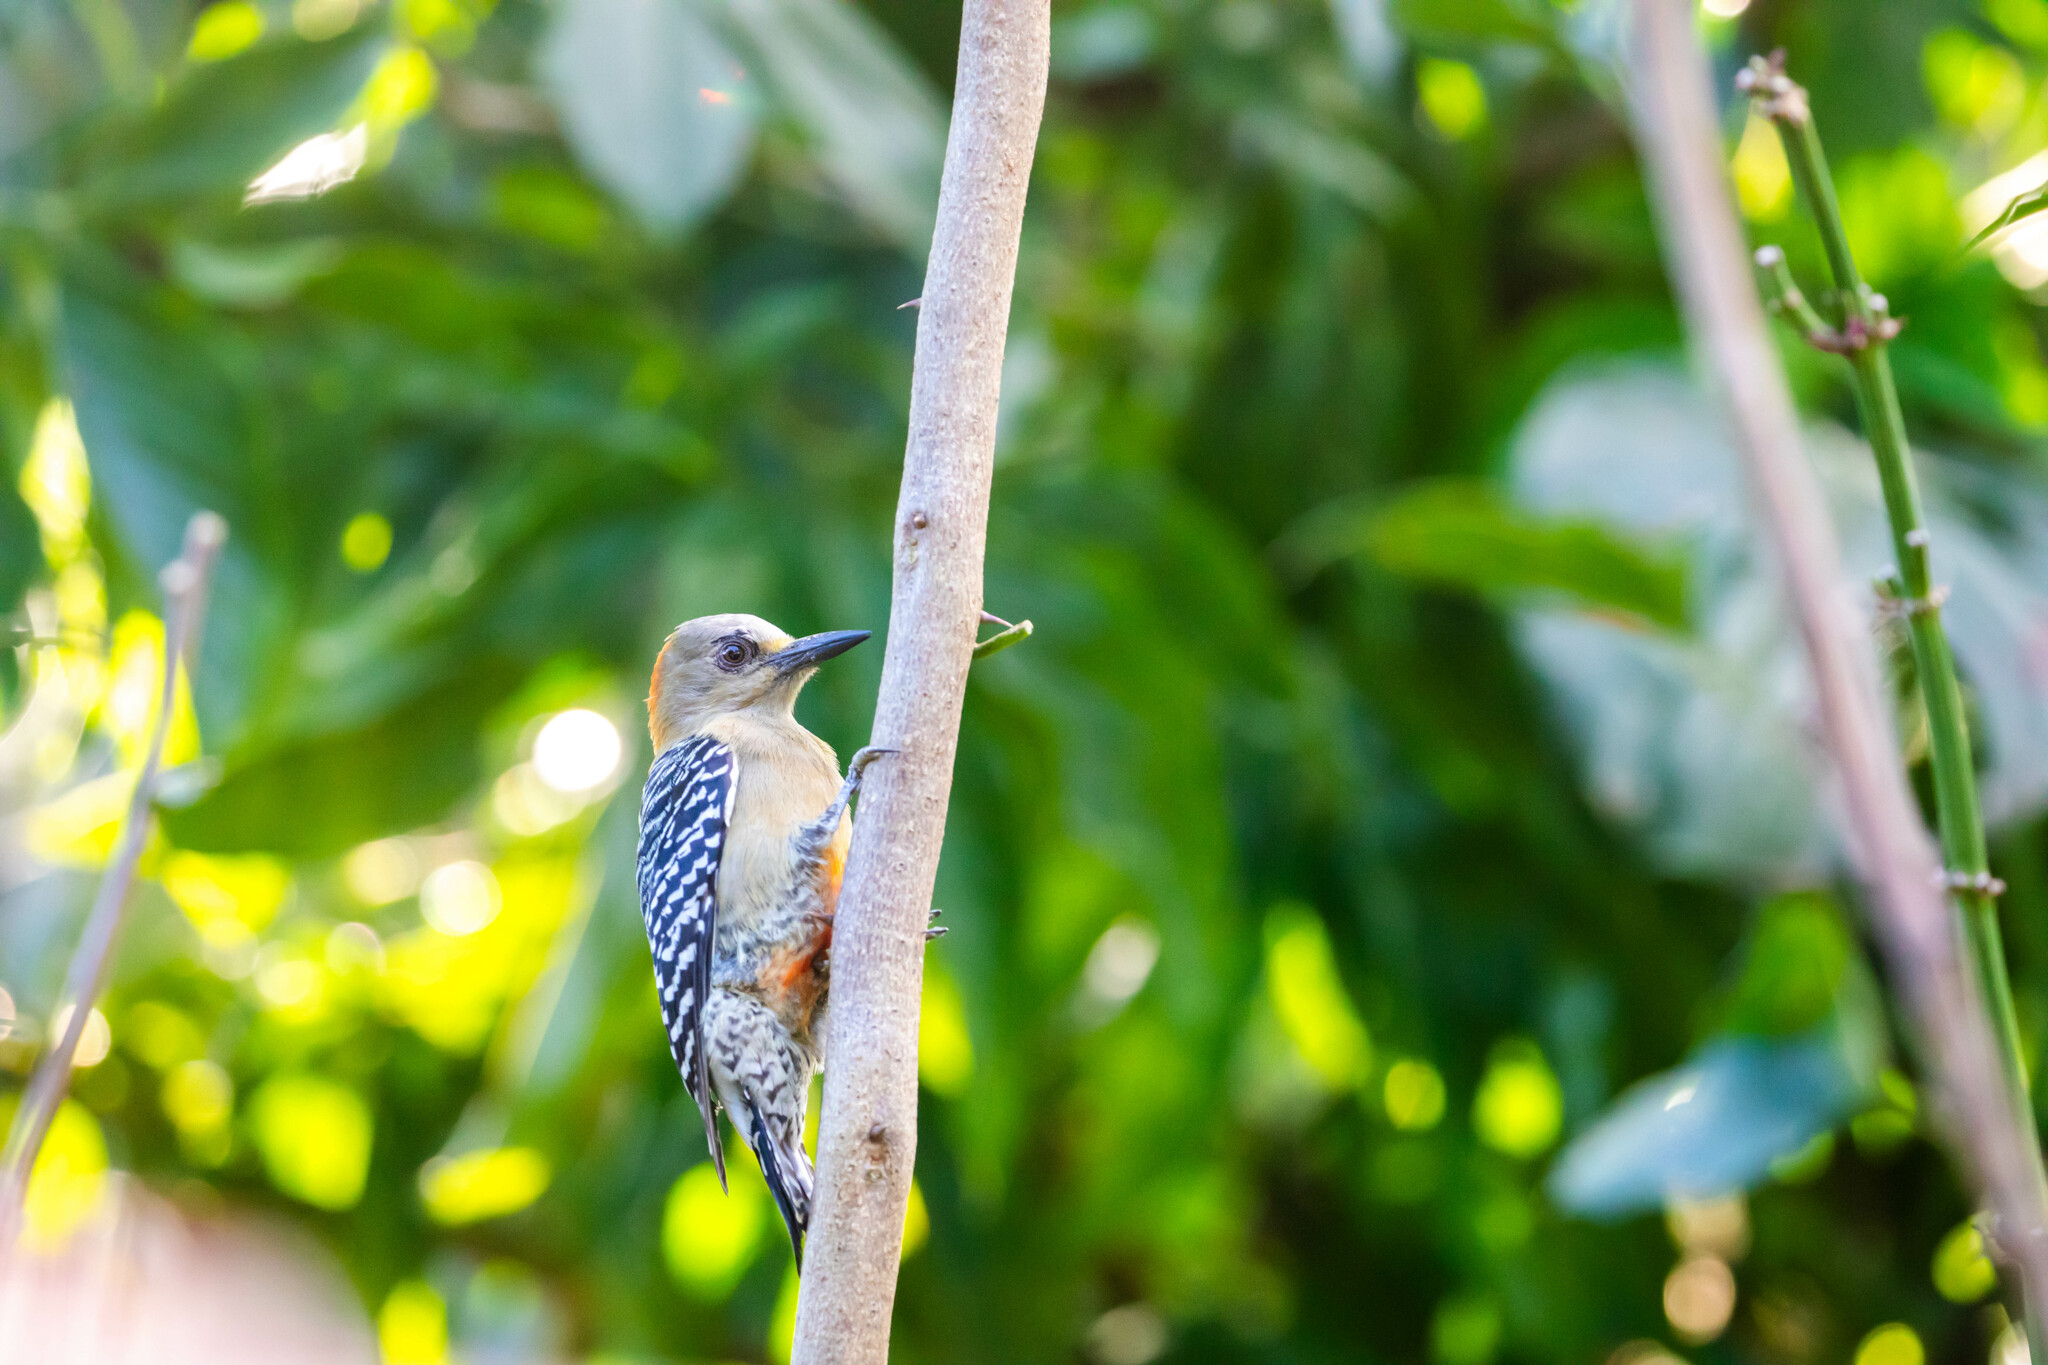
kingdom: Animalia
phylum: Chordata
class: Aves
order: Piciformes
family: Picidae
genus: Melanerpes
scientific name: Melanerpes rubricapillus
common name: Red-crowned woodpecker
